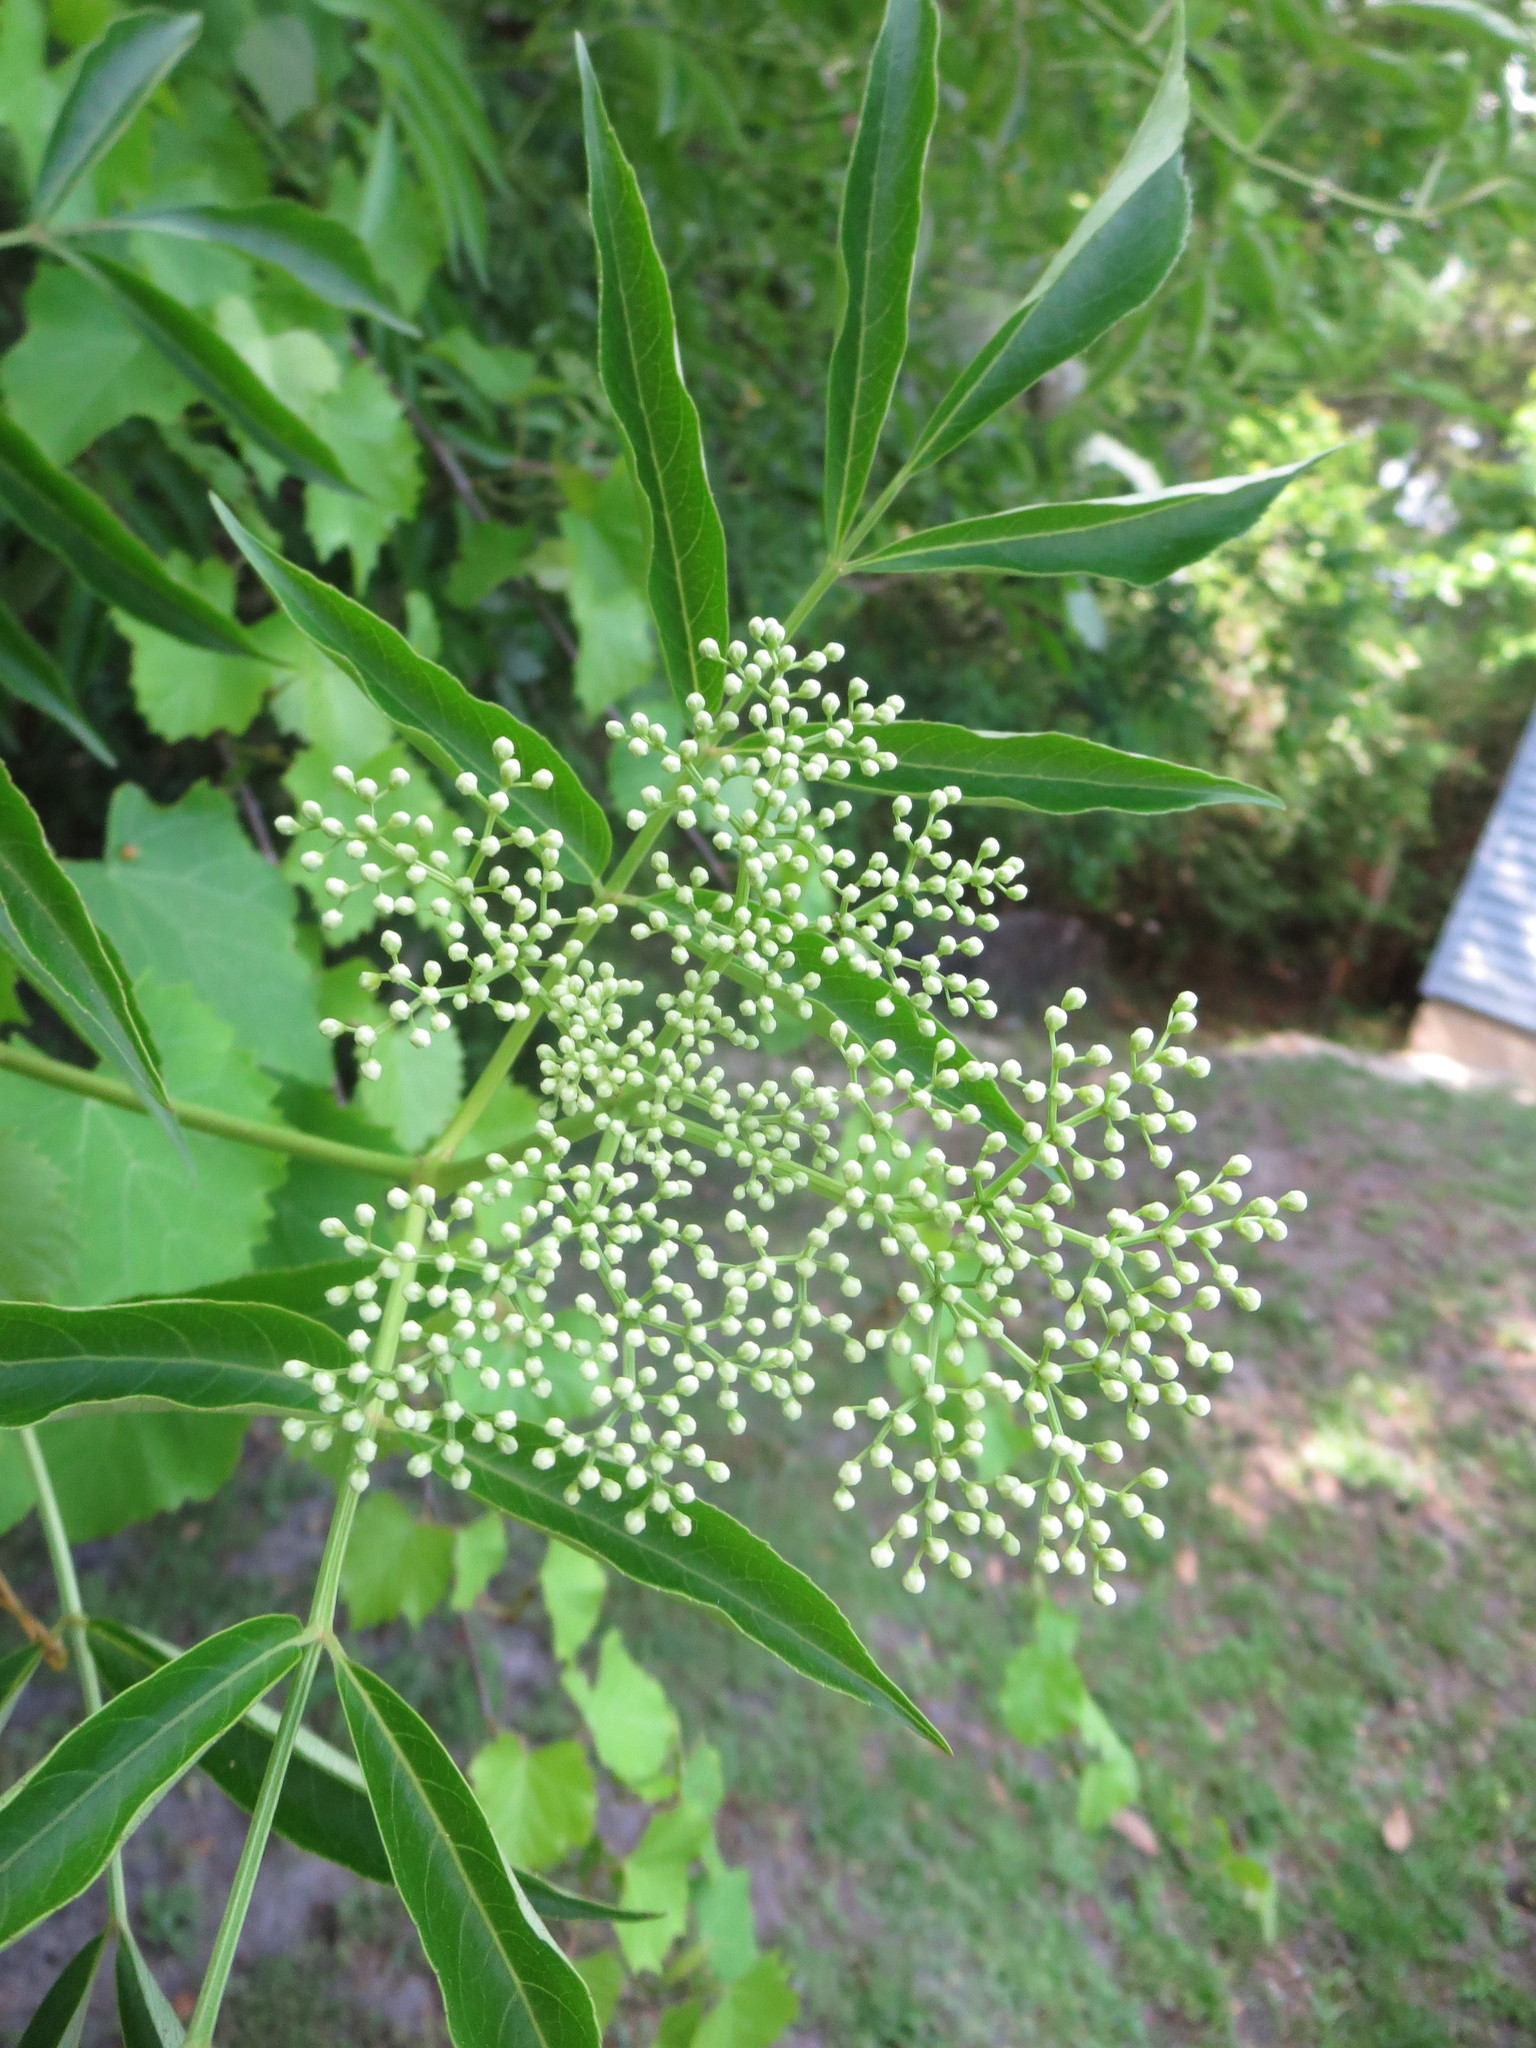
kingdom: Plantae
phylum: Tracheophyta
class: Magnoliopsida
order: Dipsacales
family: Viburnaceae
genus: Sambucus
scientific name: Sambucus canadensis
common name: American elder
